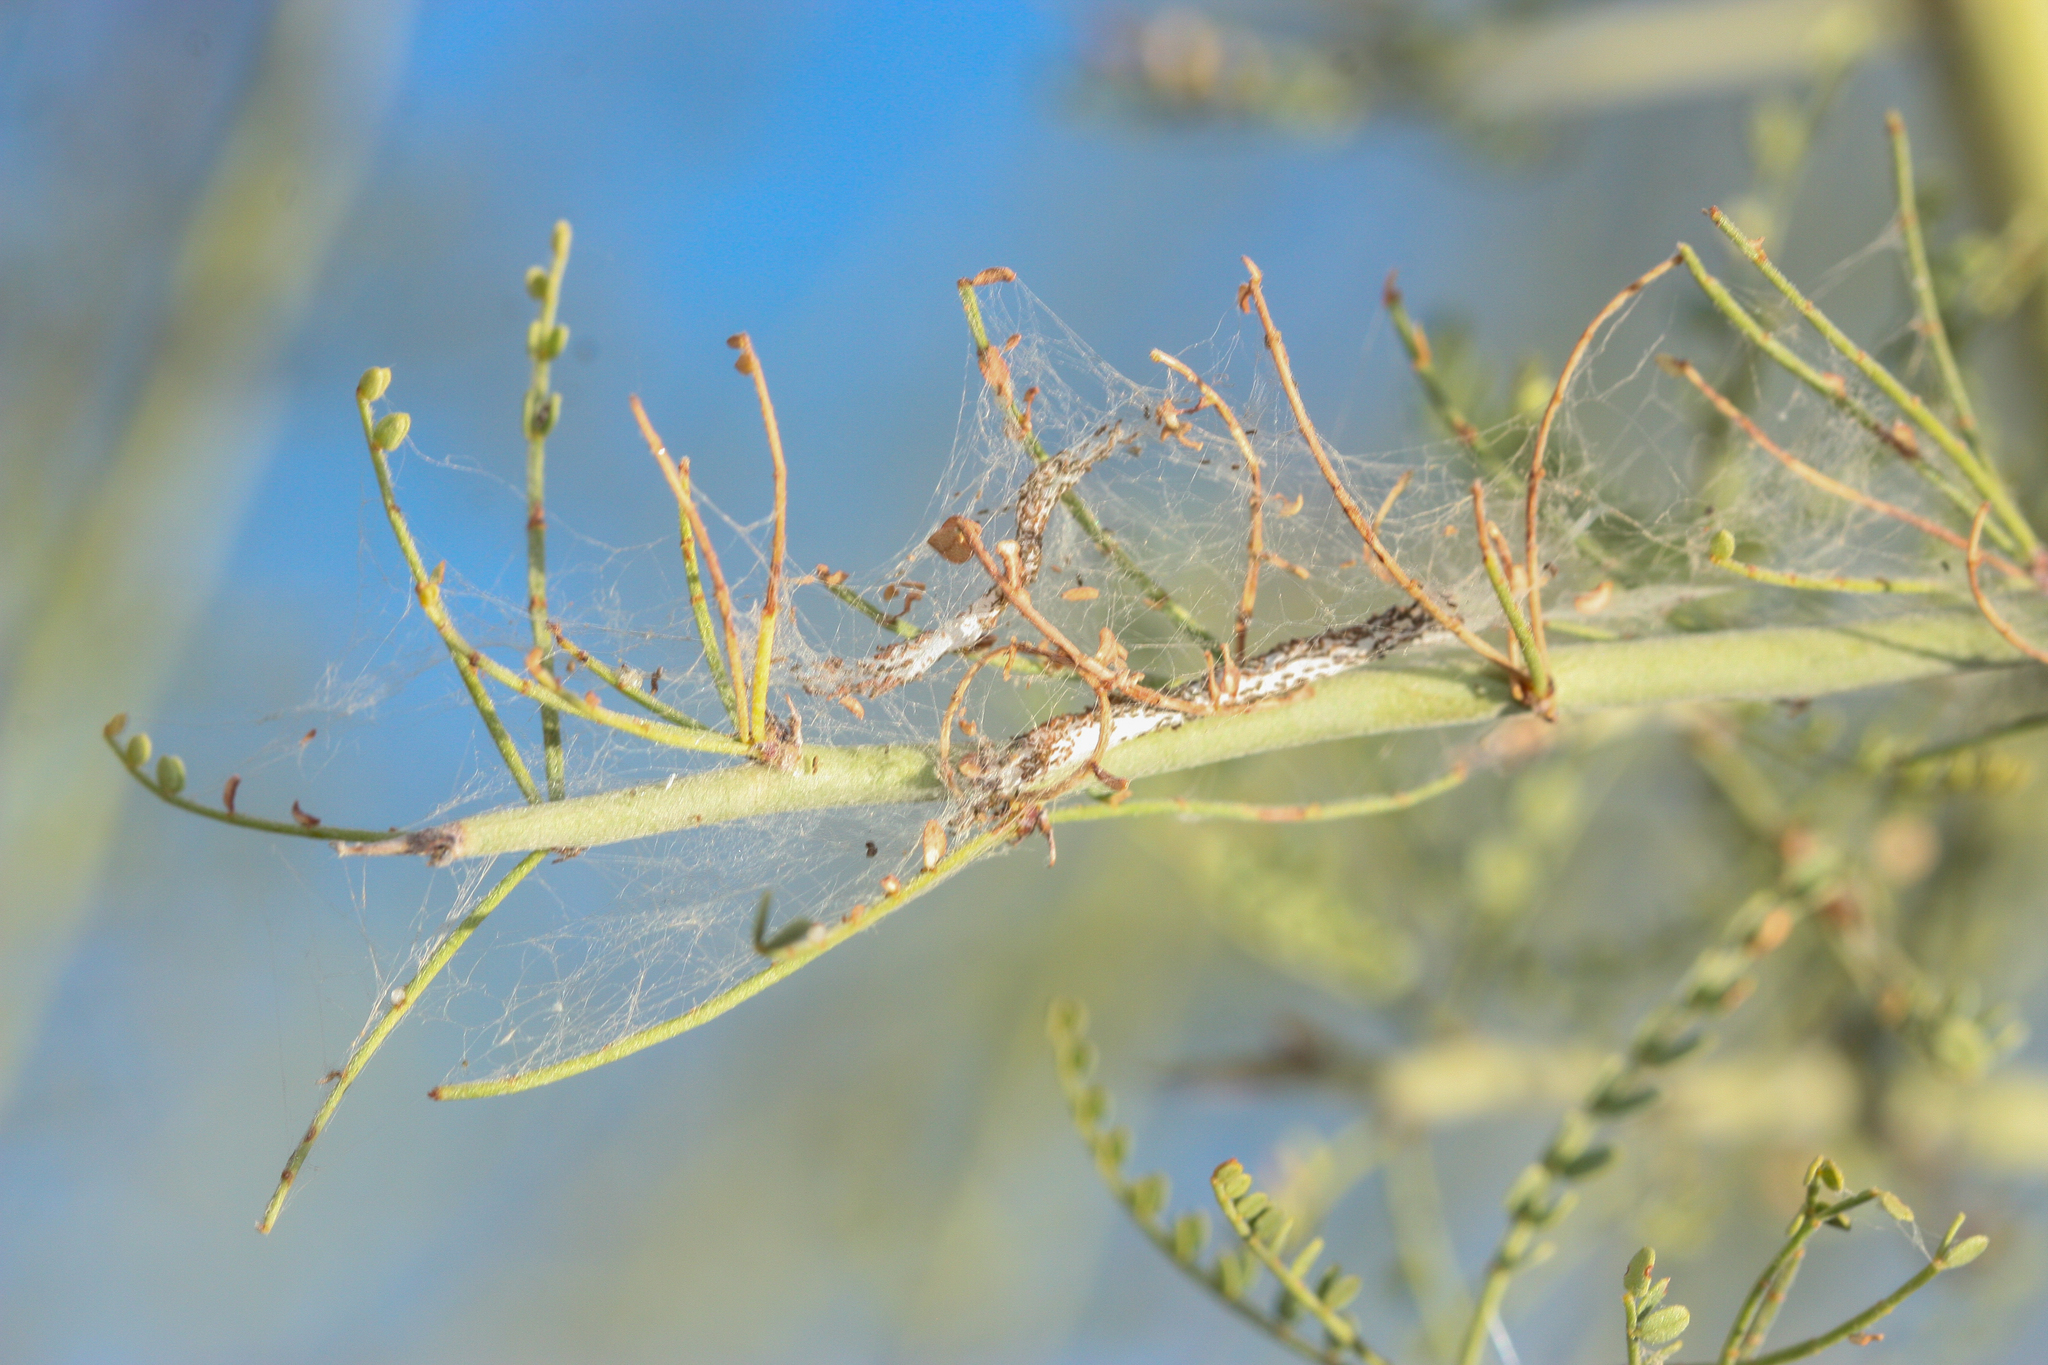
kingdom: Animalia
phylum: Arthropoda
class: Insecta
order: Lepidoptera
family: Gelechiidae
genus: Faculta
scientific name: Faculta inaequalis
